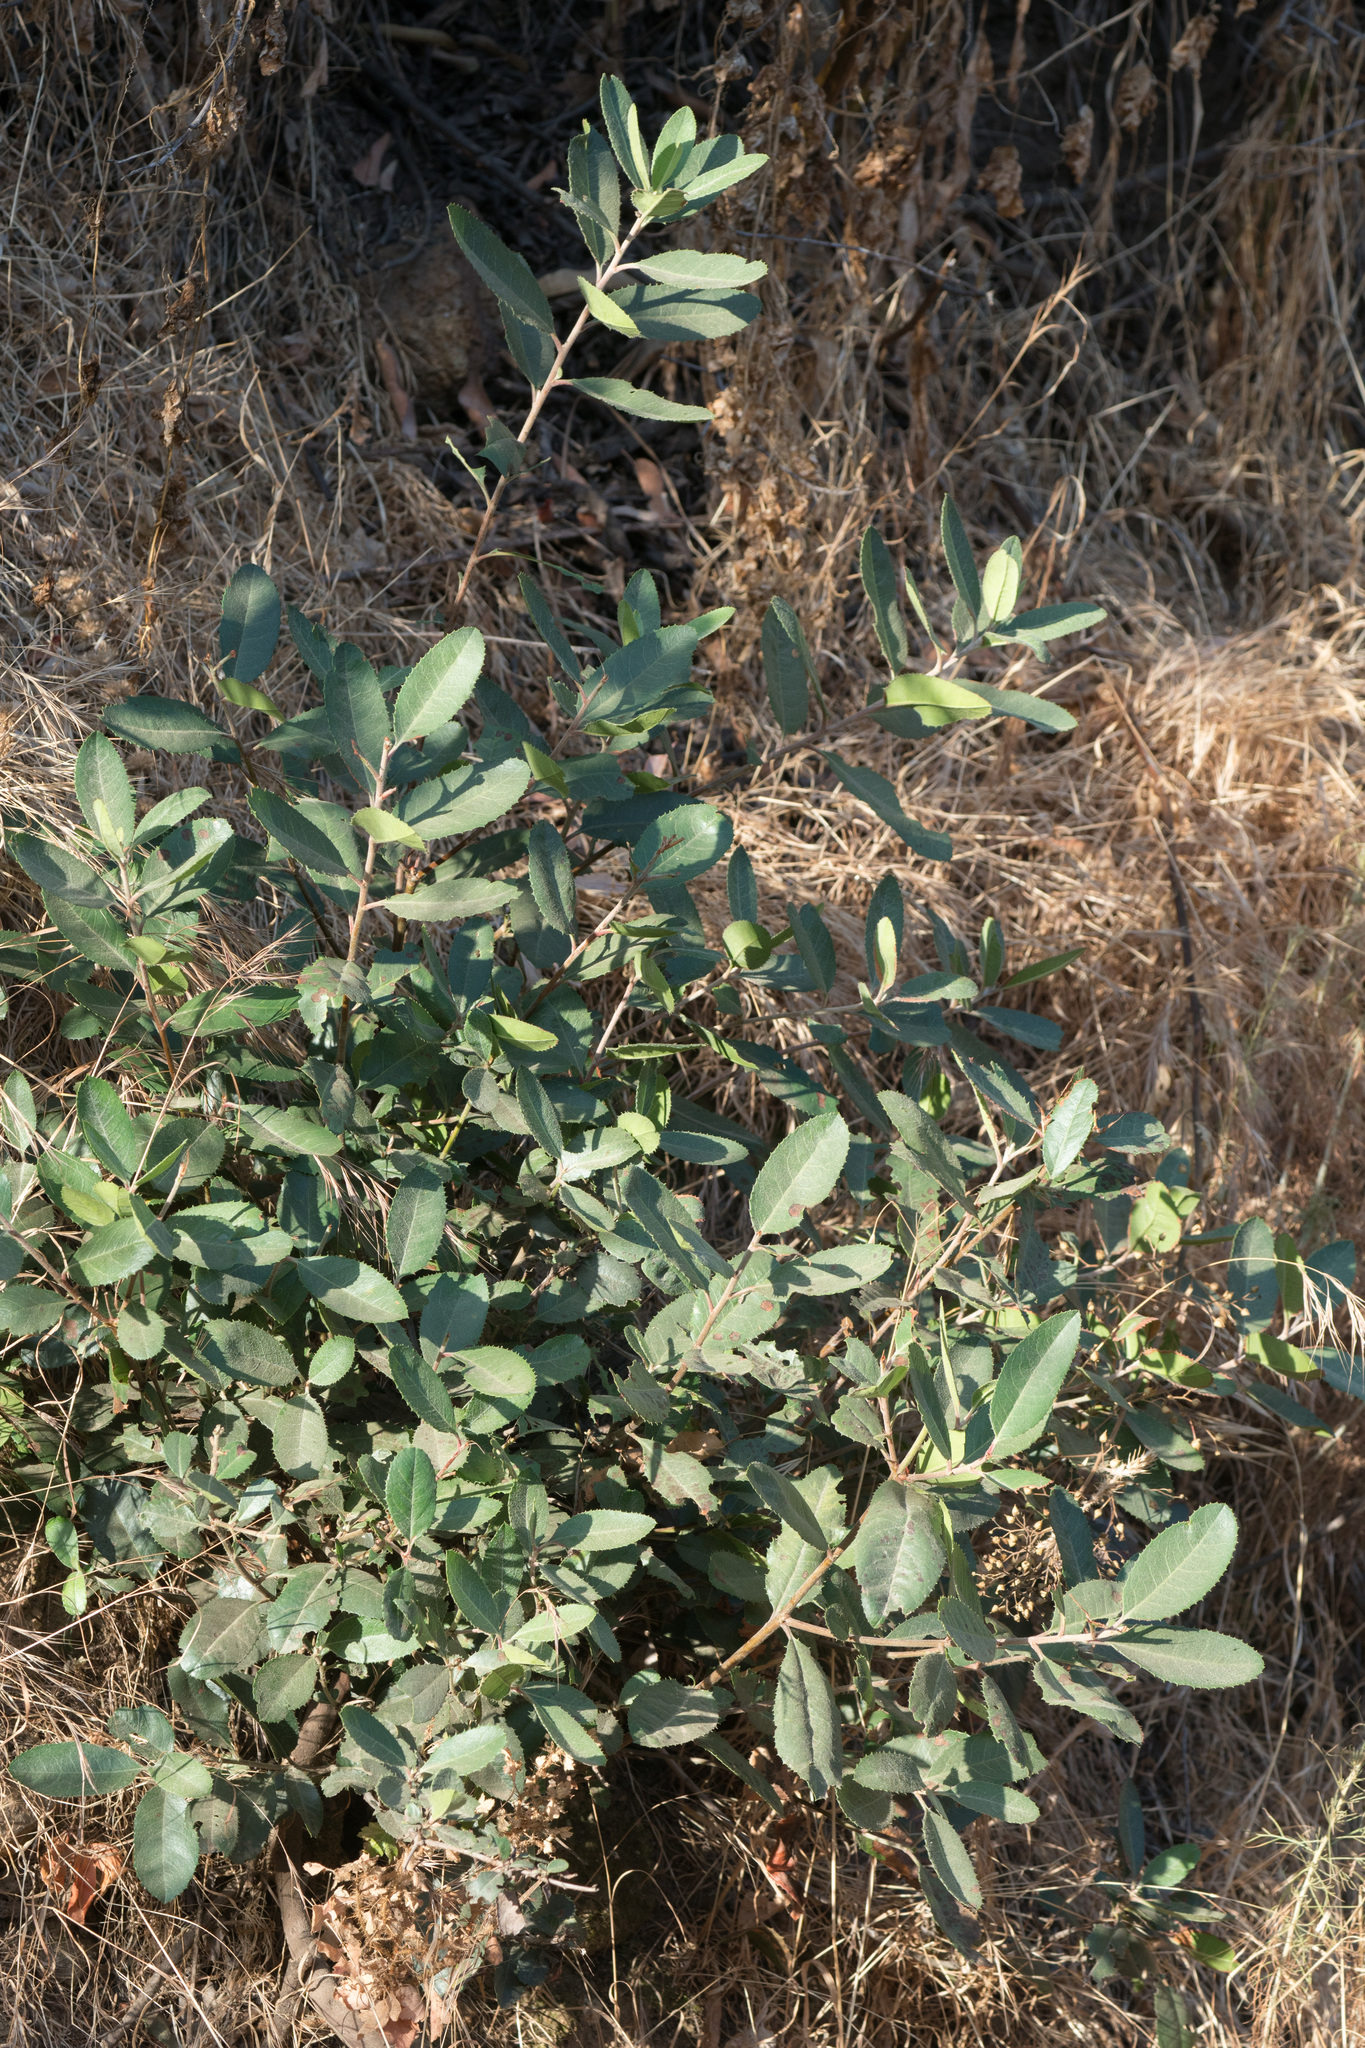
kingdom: Plantae
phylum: Tracheophyta
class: Magnoliopsida
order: Rosales
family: Rosaceae
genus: Heteromeles
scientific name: Heteromeles arbutifolia
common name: California-holly
